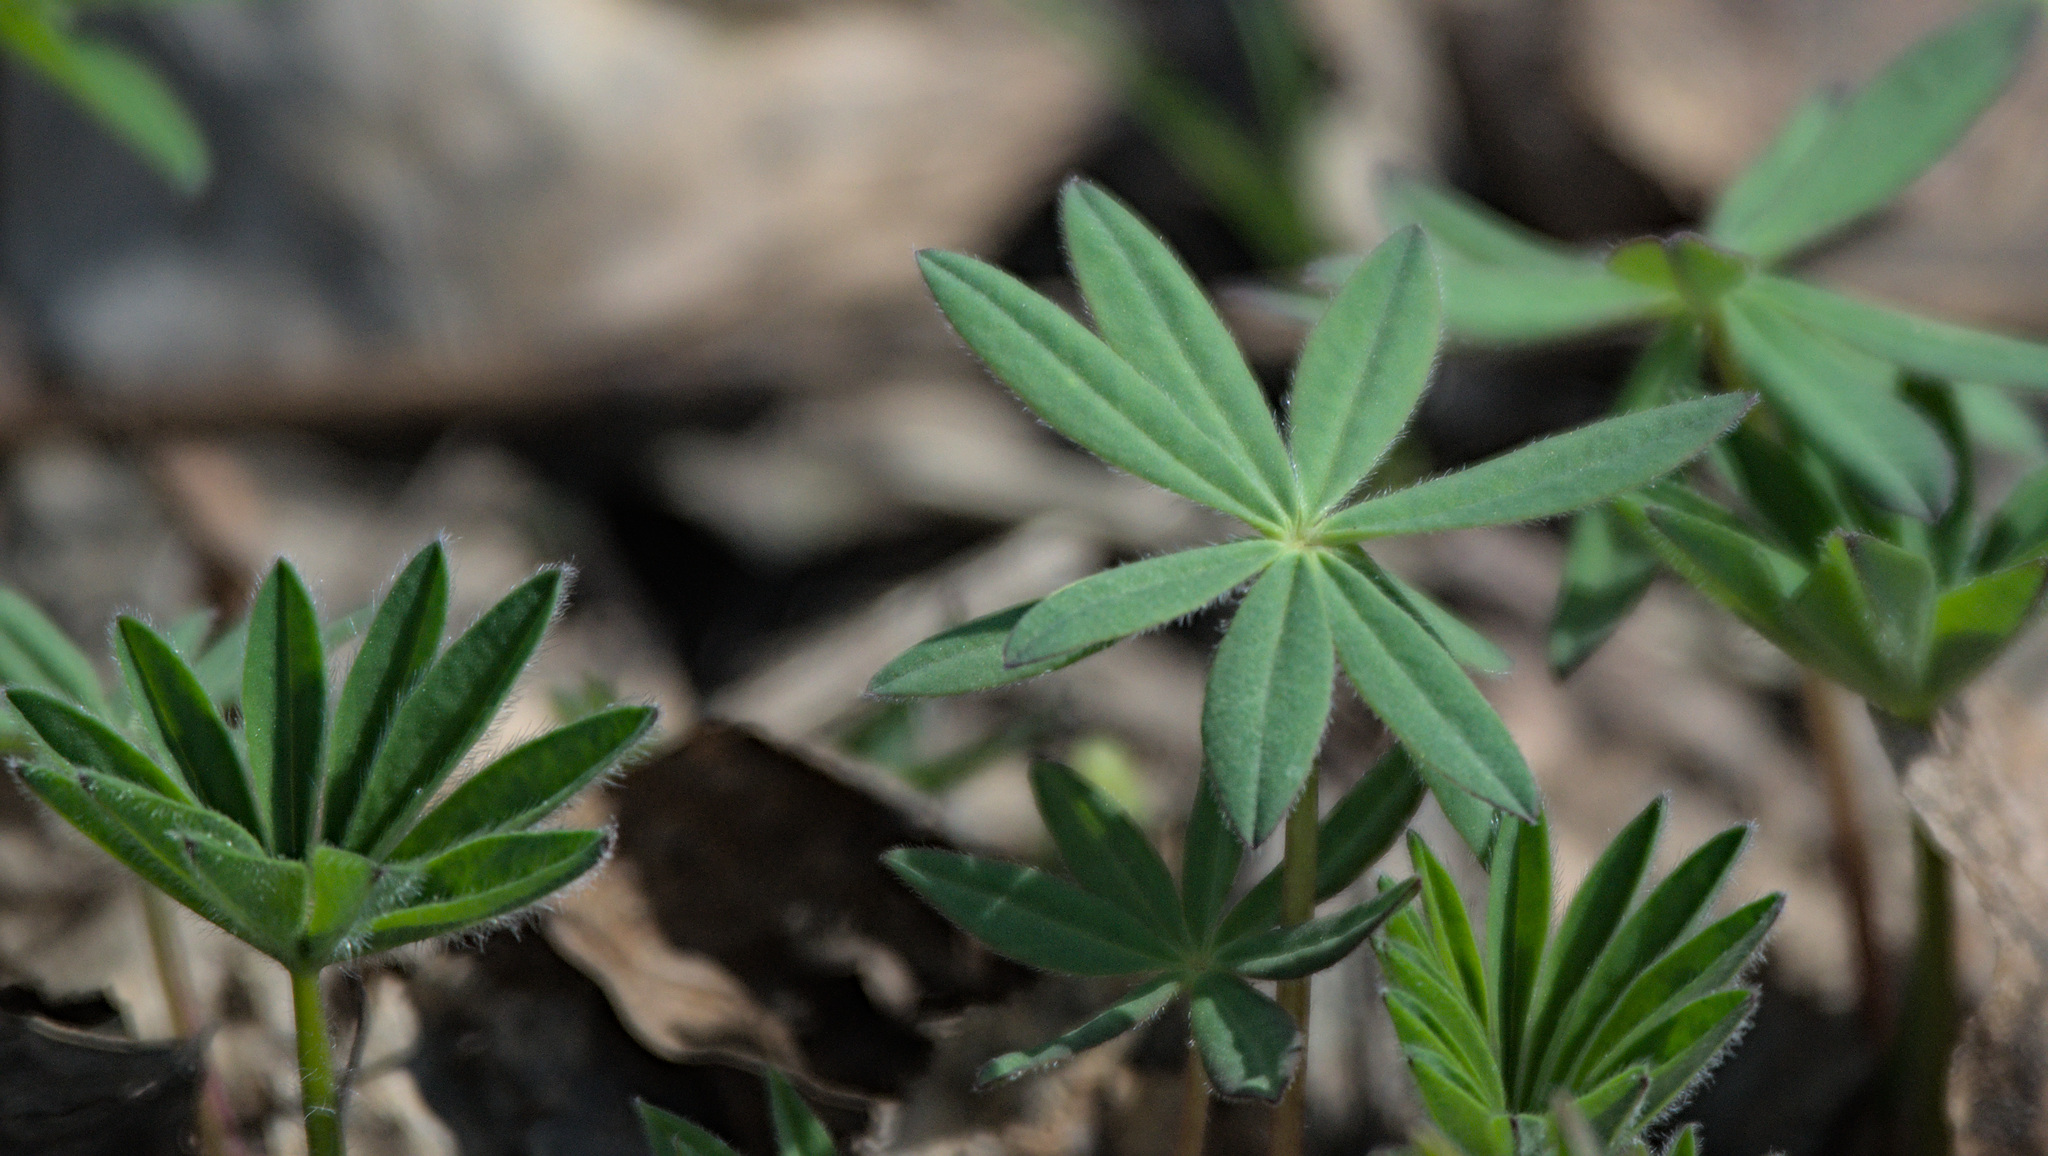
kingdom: Plantae
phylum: Tracheophyta
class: Magnoliopsida
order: Fabales
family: Fabaceae
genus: Lupinus
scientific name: Lupinus polyphyllus
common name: Garden lupin
